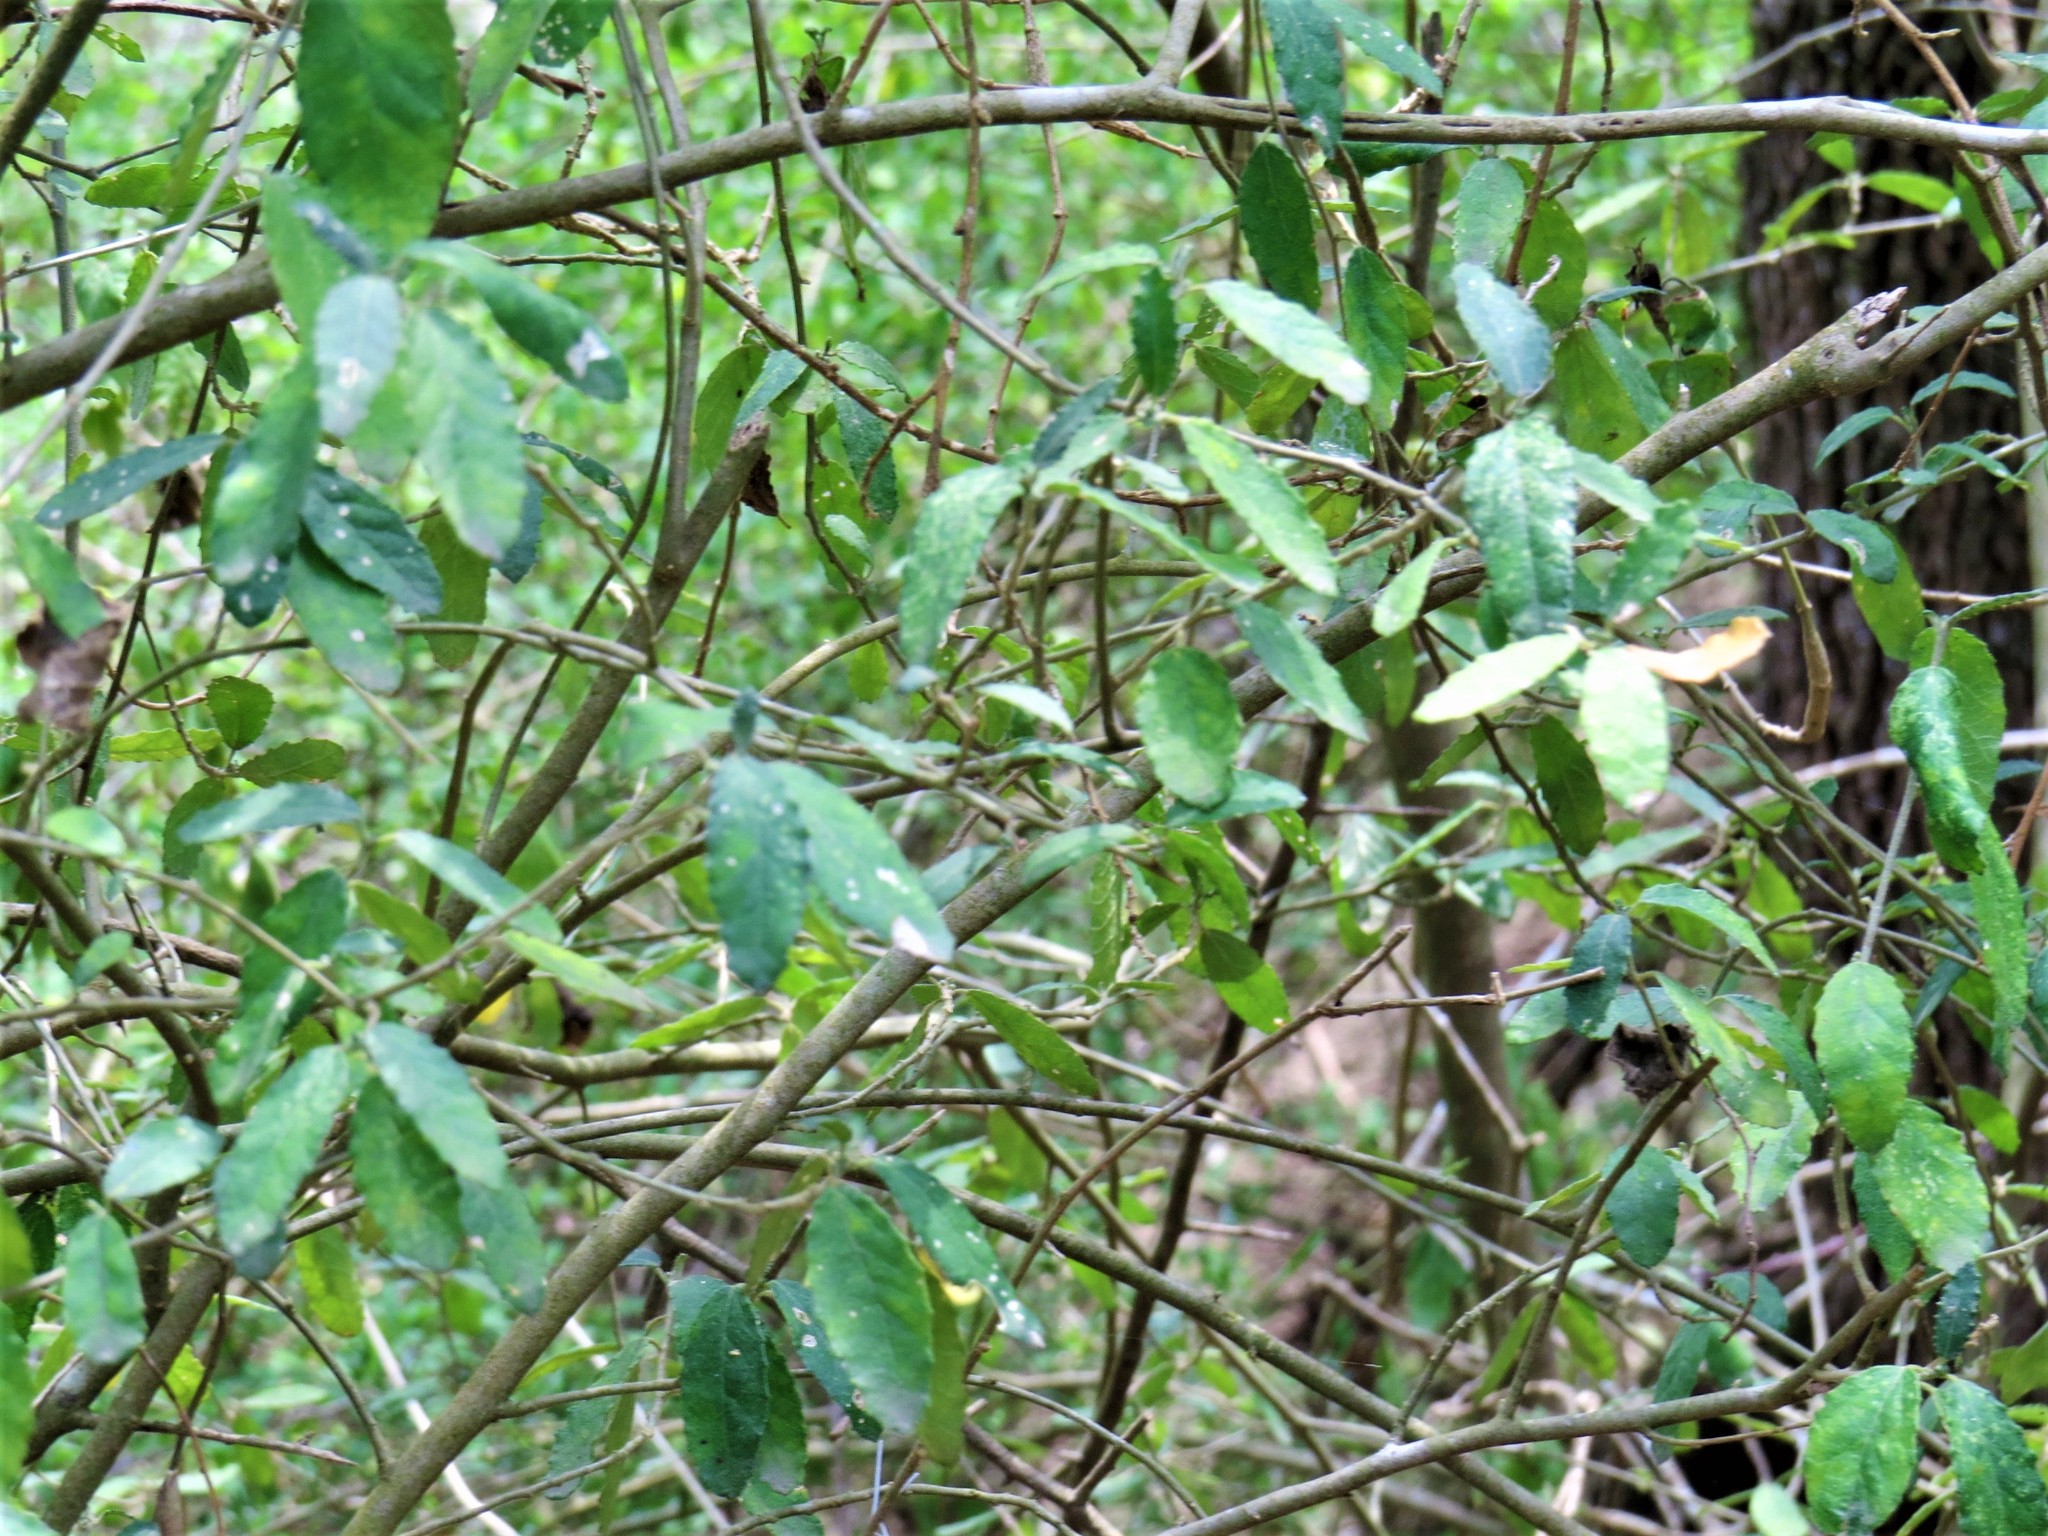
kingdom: Plantae
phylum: Tracheophyta
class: Magnoliopsida
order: Malpighiales
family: Euphorbiaceae
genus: Bernardia
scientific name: Bernardia myricifolia
